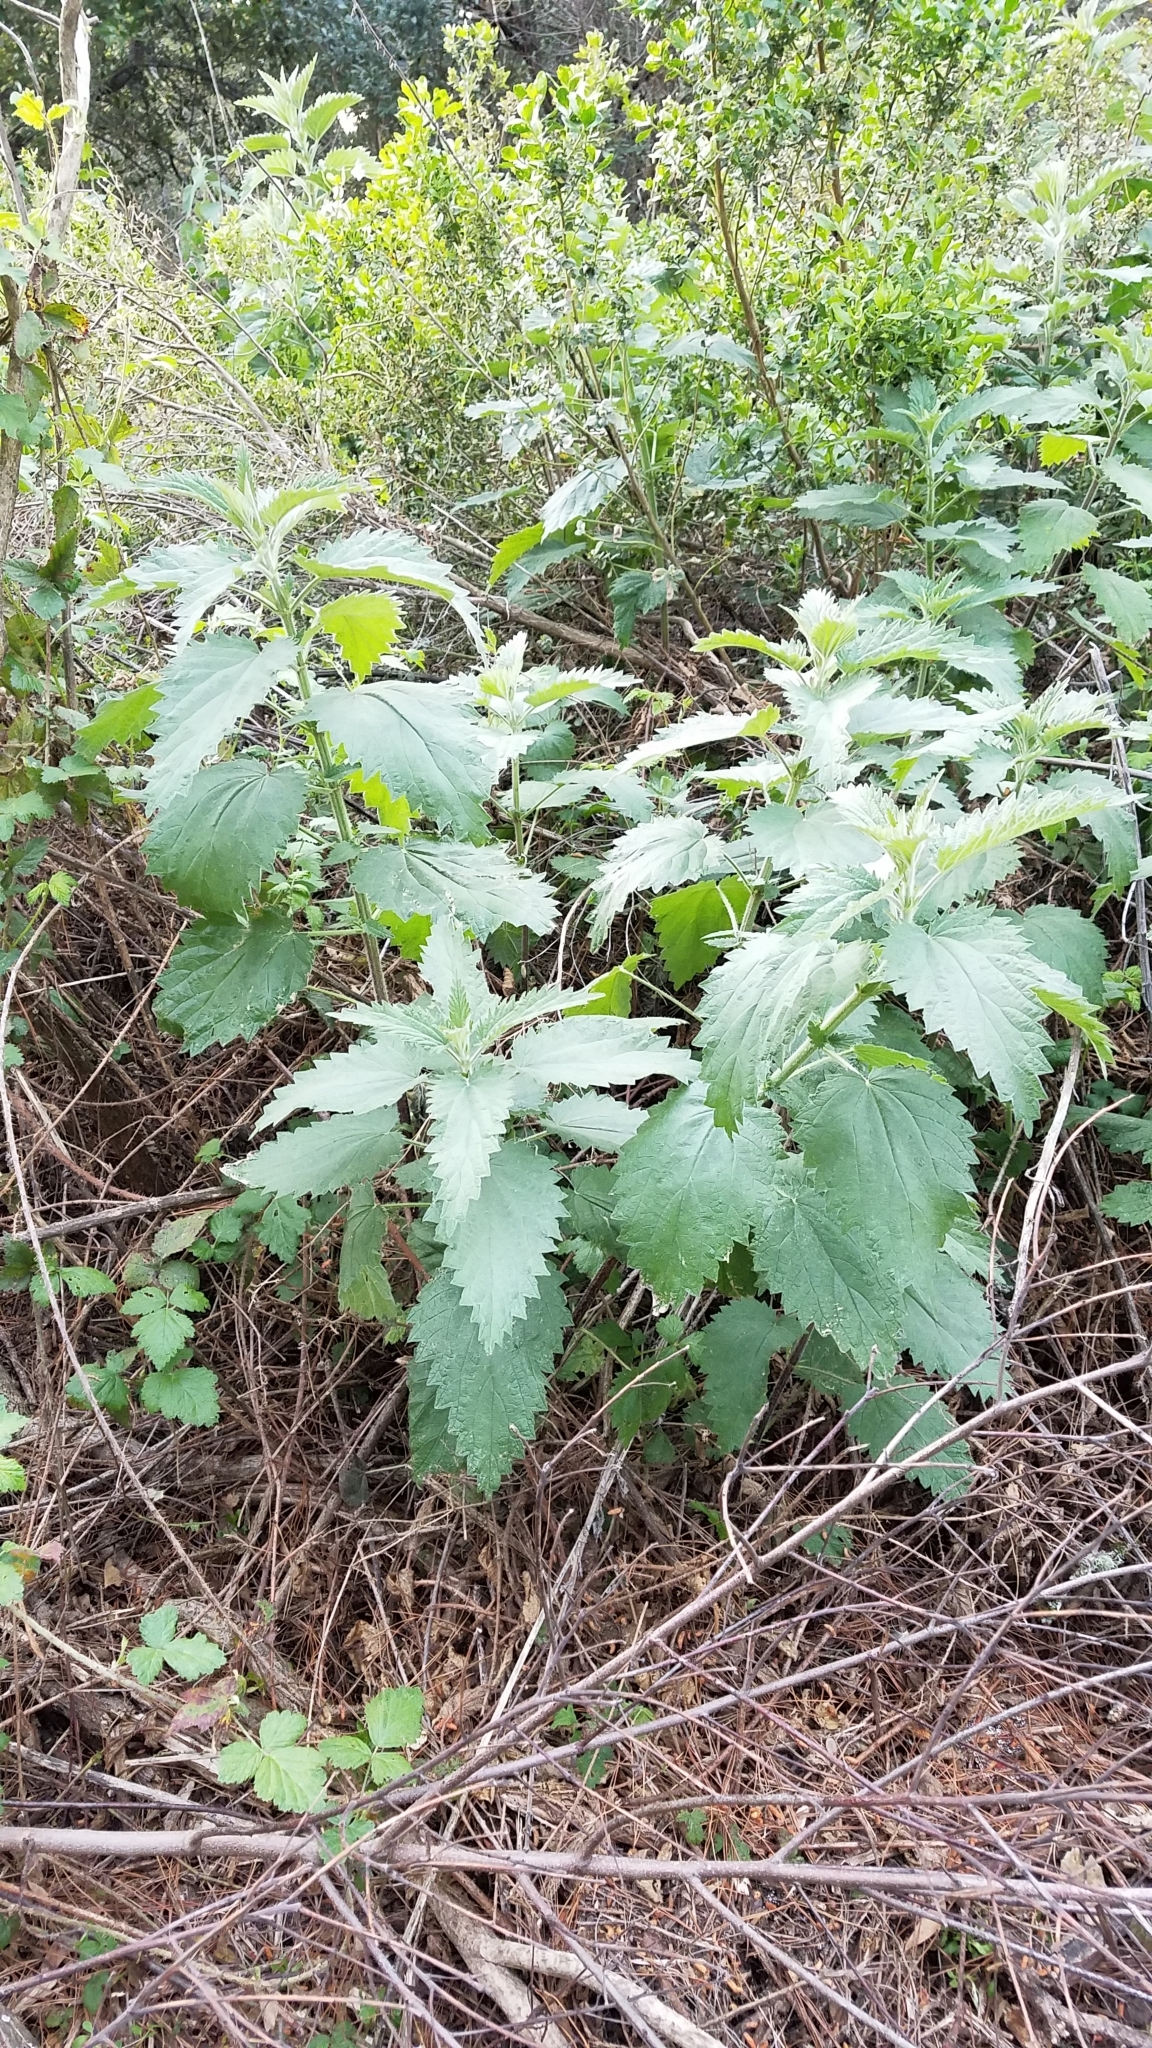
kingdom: Plantae
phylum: Tracheophyta
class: Magnoliopsida
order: Rosales
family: Urticaceae
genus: Urtica
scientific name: Urtica dioica
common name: Common nettle
